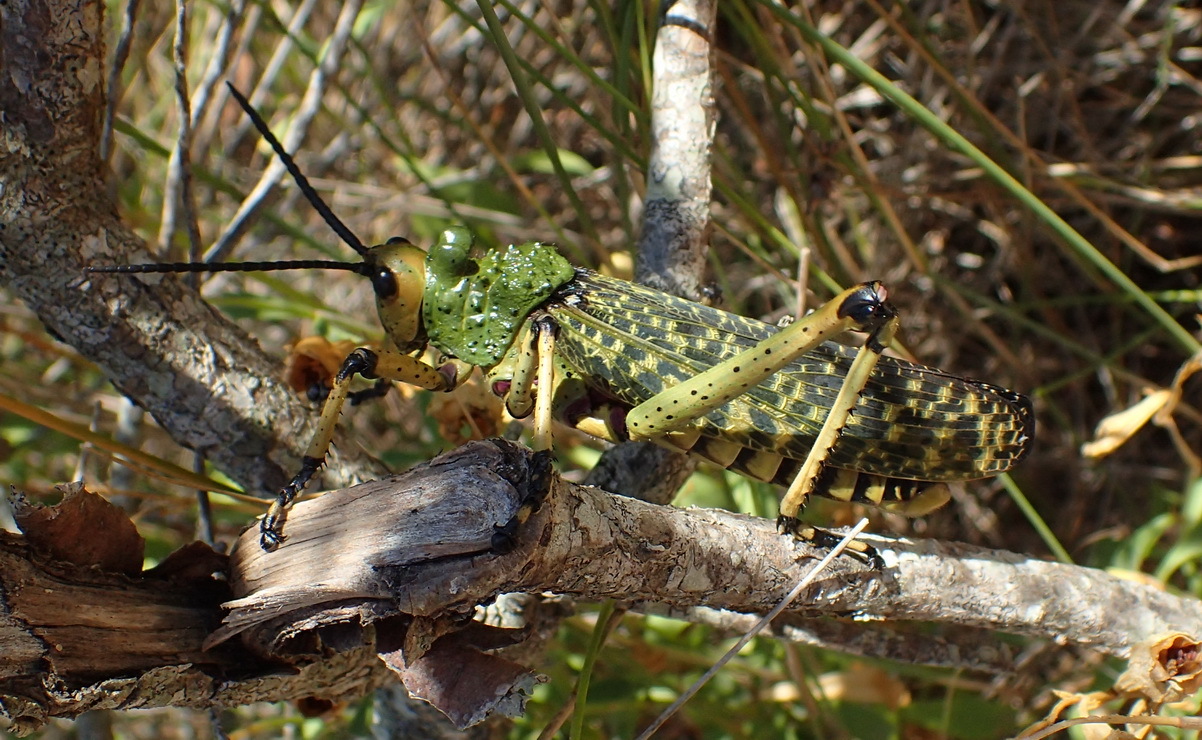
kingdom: Animalia
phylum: Arthropoda
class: Insecta
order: Orthoptera
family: Pyrgomorphidae
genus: Phymateus
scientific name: Phymateus leprosus
